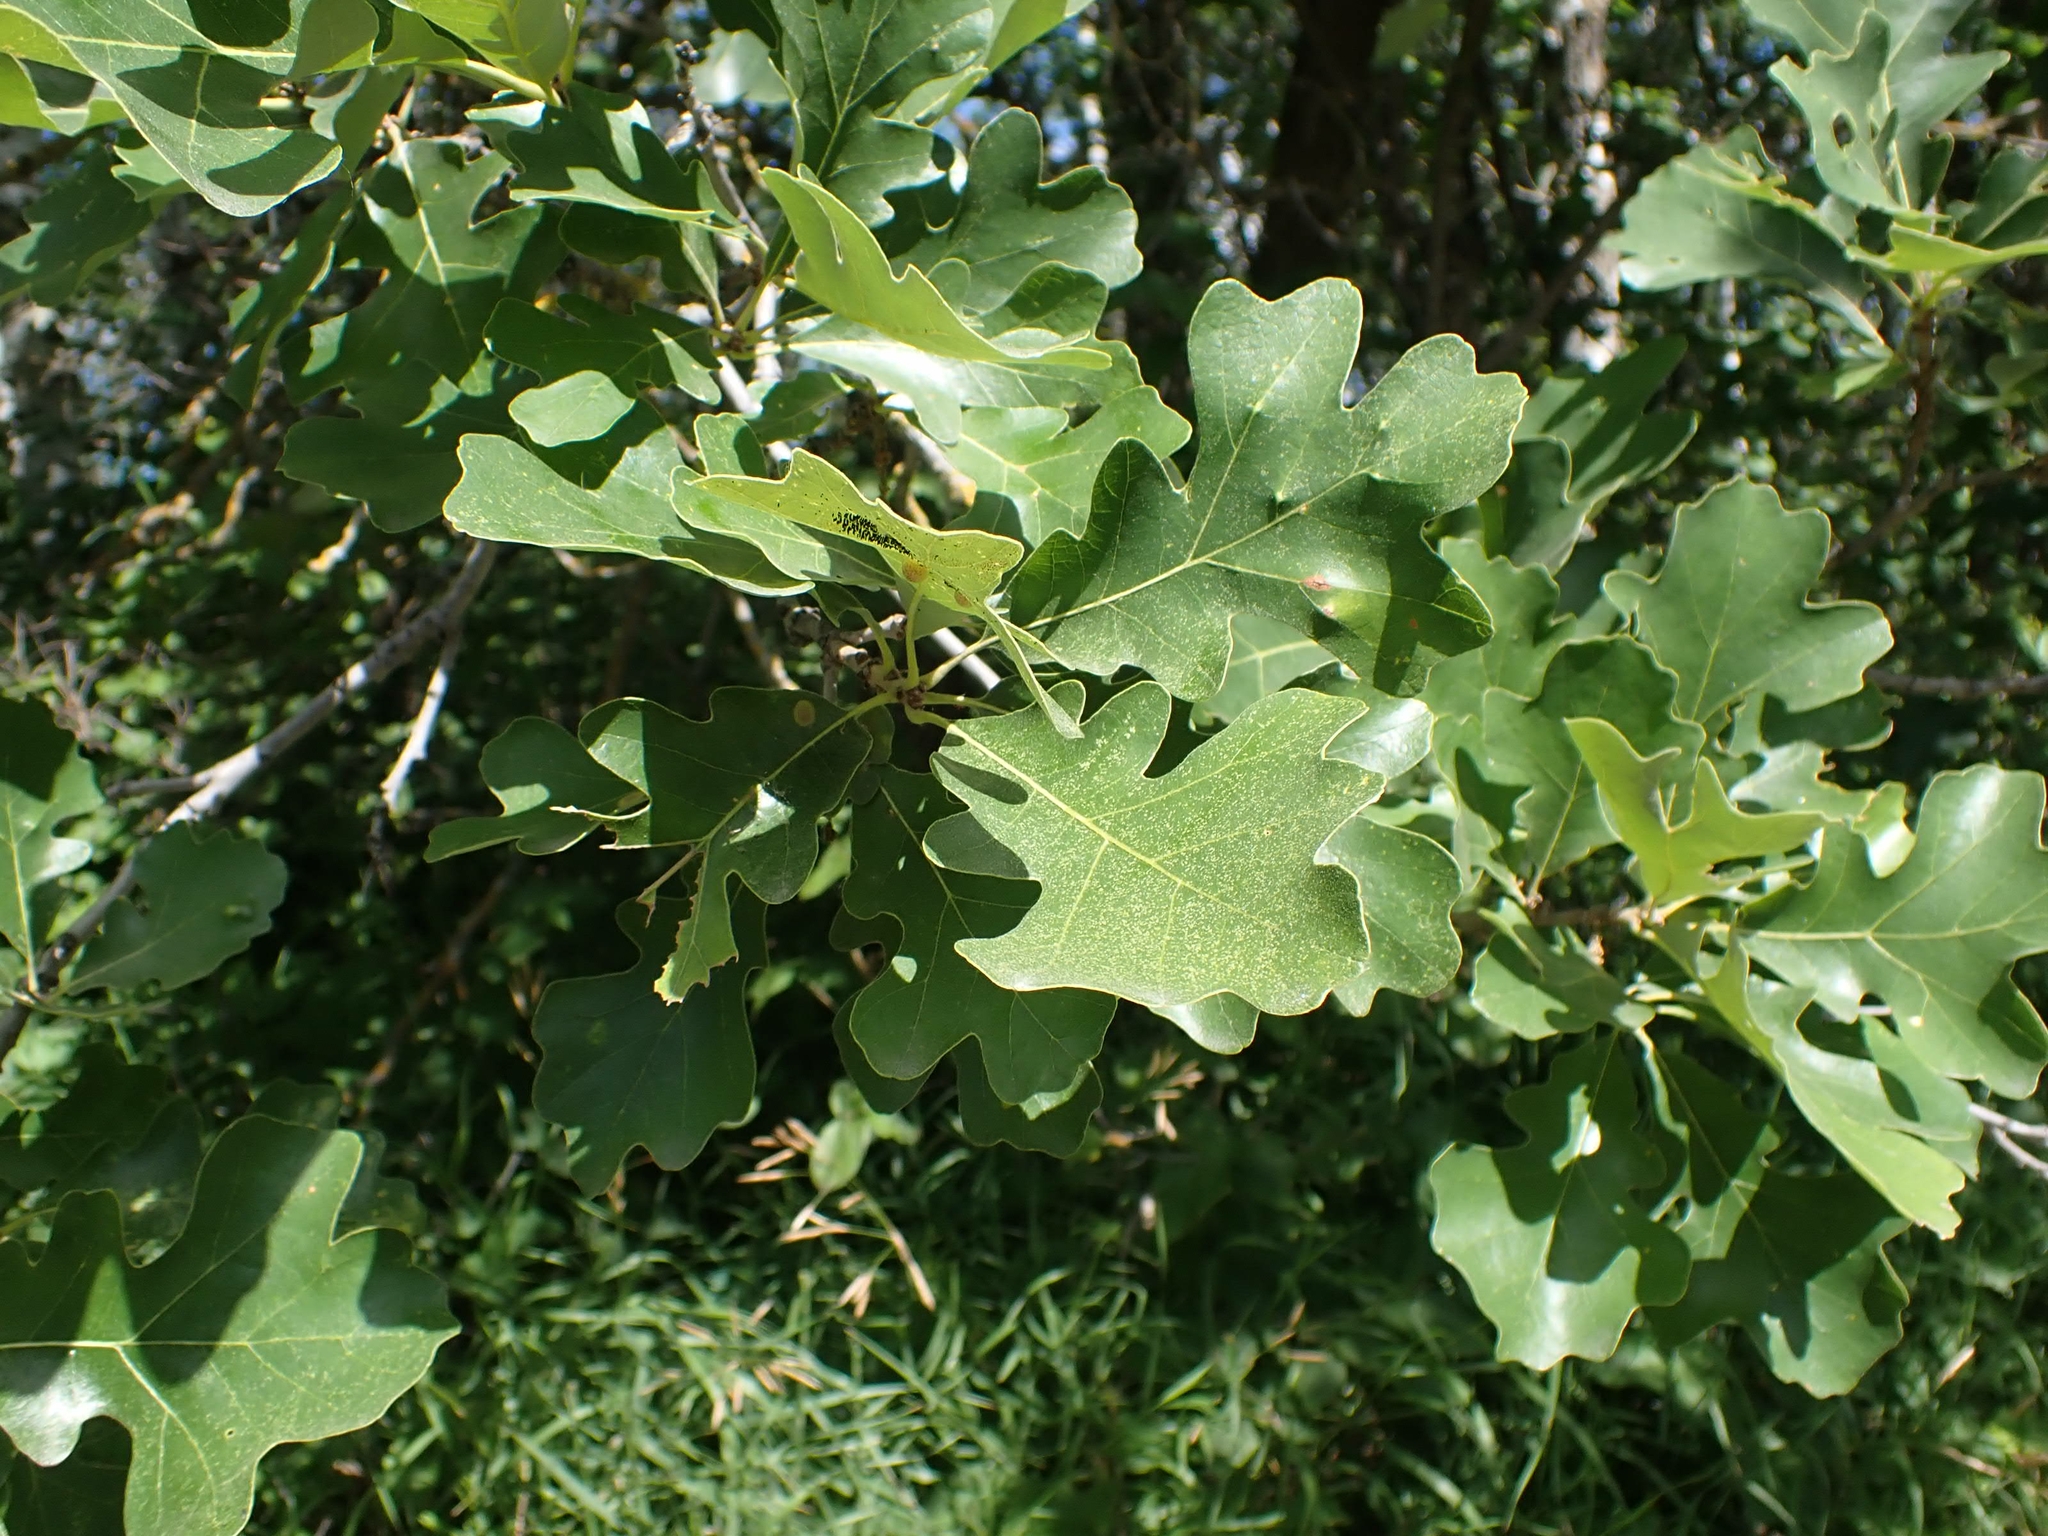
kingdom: Plantae
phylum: Tracheophyta
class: Magnoliopsida
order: Fagales
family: Fagaceae
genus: Quercus
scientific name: Quercus macrocarpa
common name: Bur oak
